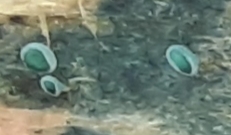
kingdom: Fungi
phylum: Ascomycota
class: Leotiomycetes
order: Helotiales
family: Chlorociboriaceae
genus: Chlorociboria
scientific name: Chlorociboria aeruginascens
